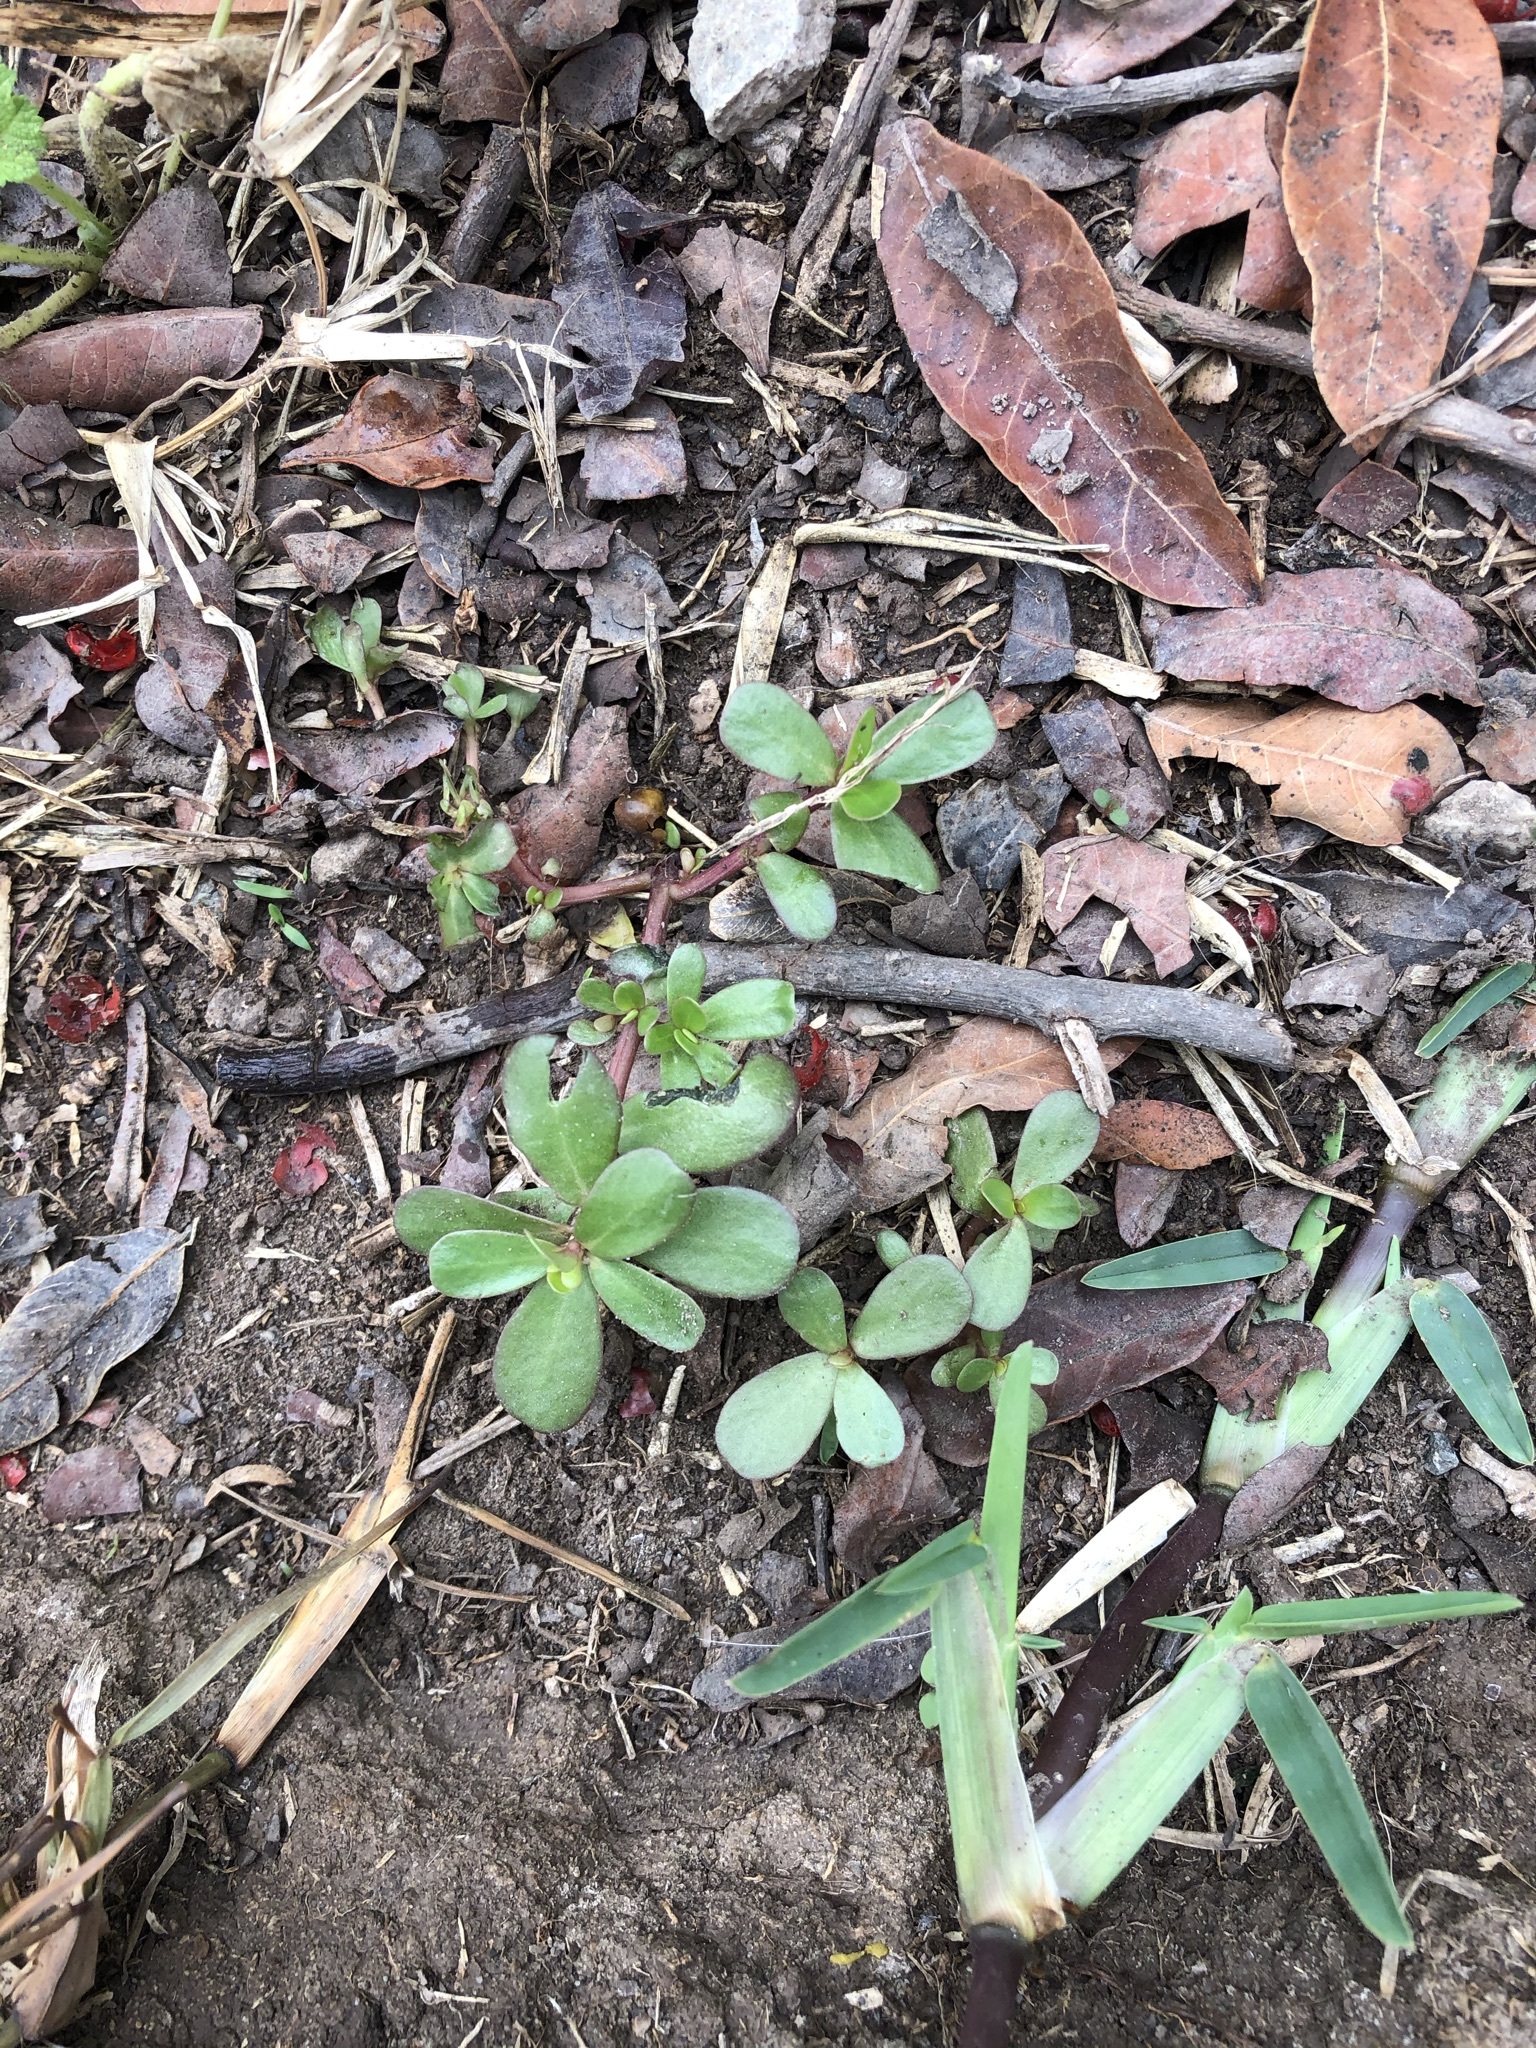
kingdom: Plantae
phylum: Tracheophyta
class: Magnoliopsida
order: Caryophyllales
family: Portulacaceae
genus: Portulaca
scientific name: Portulaca oleracea
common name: Common purslane
